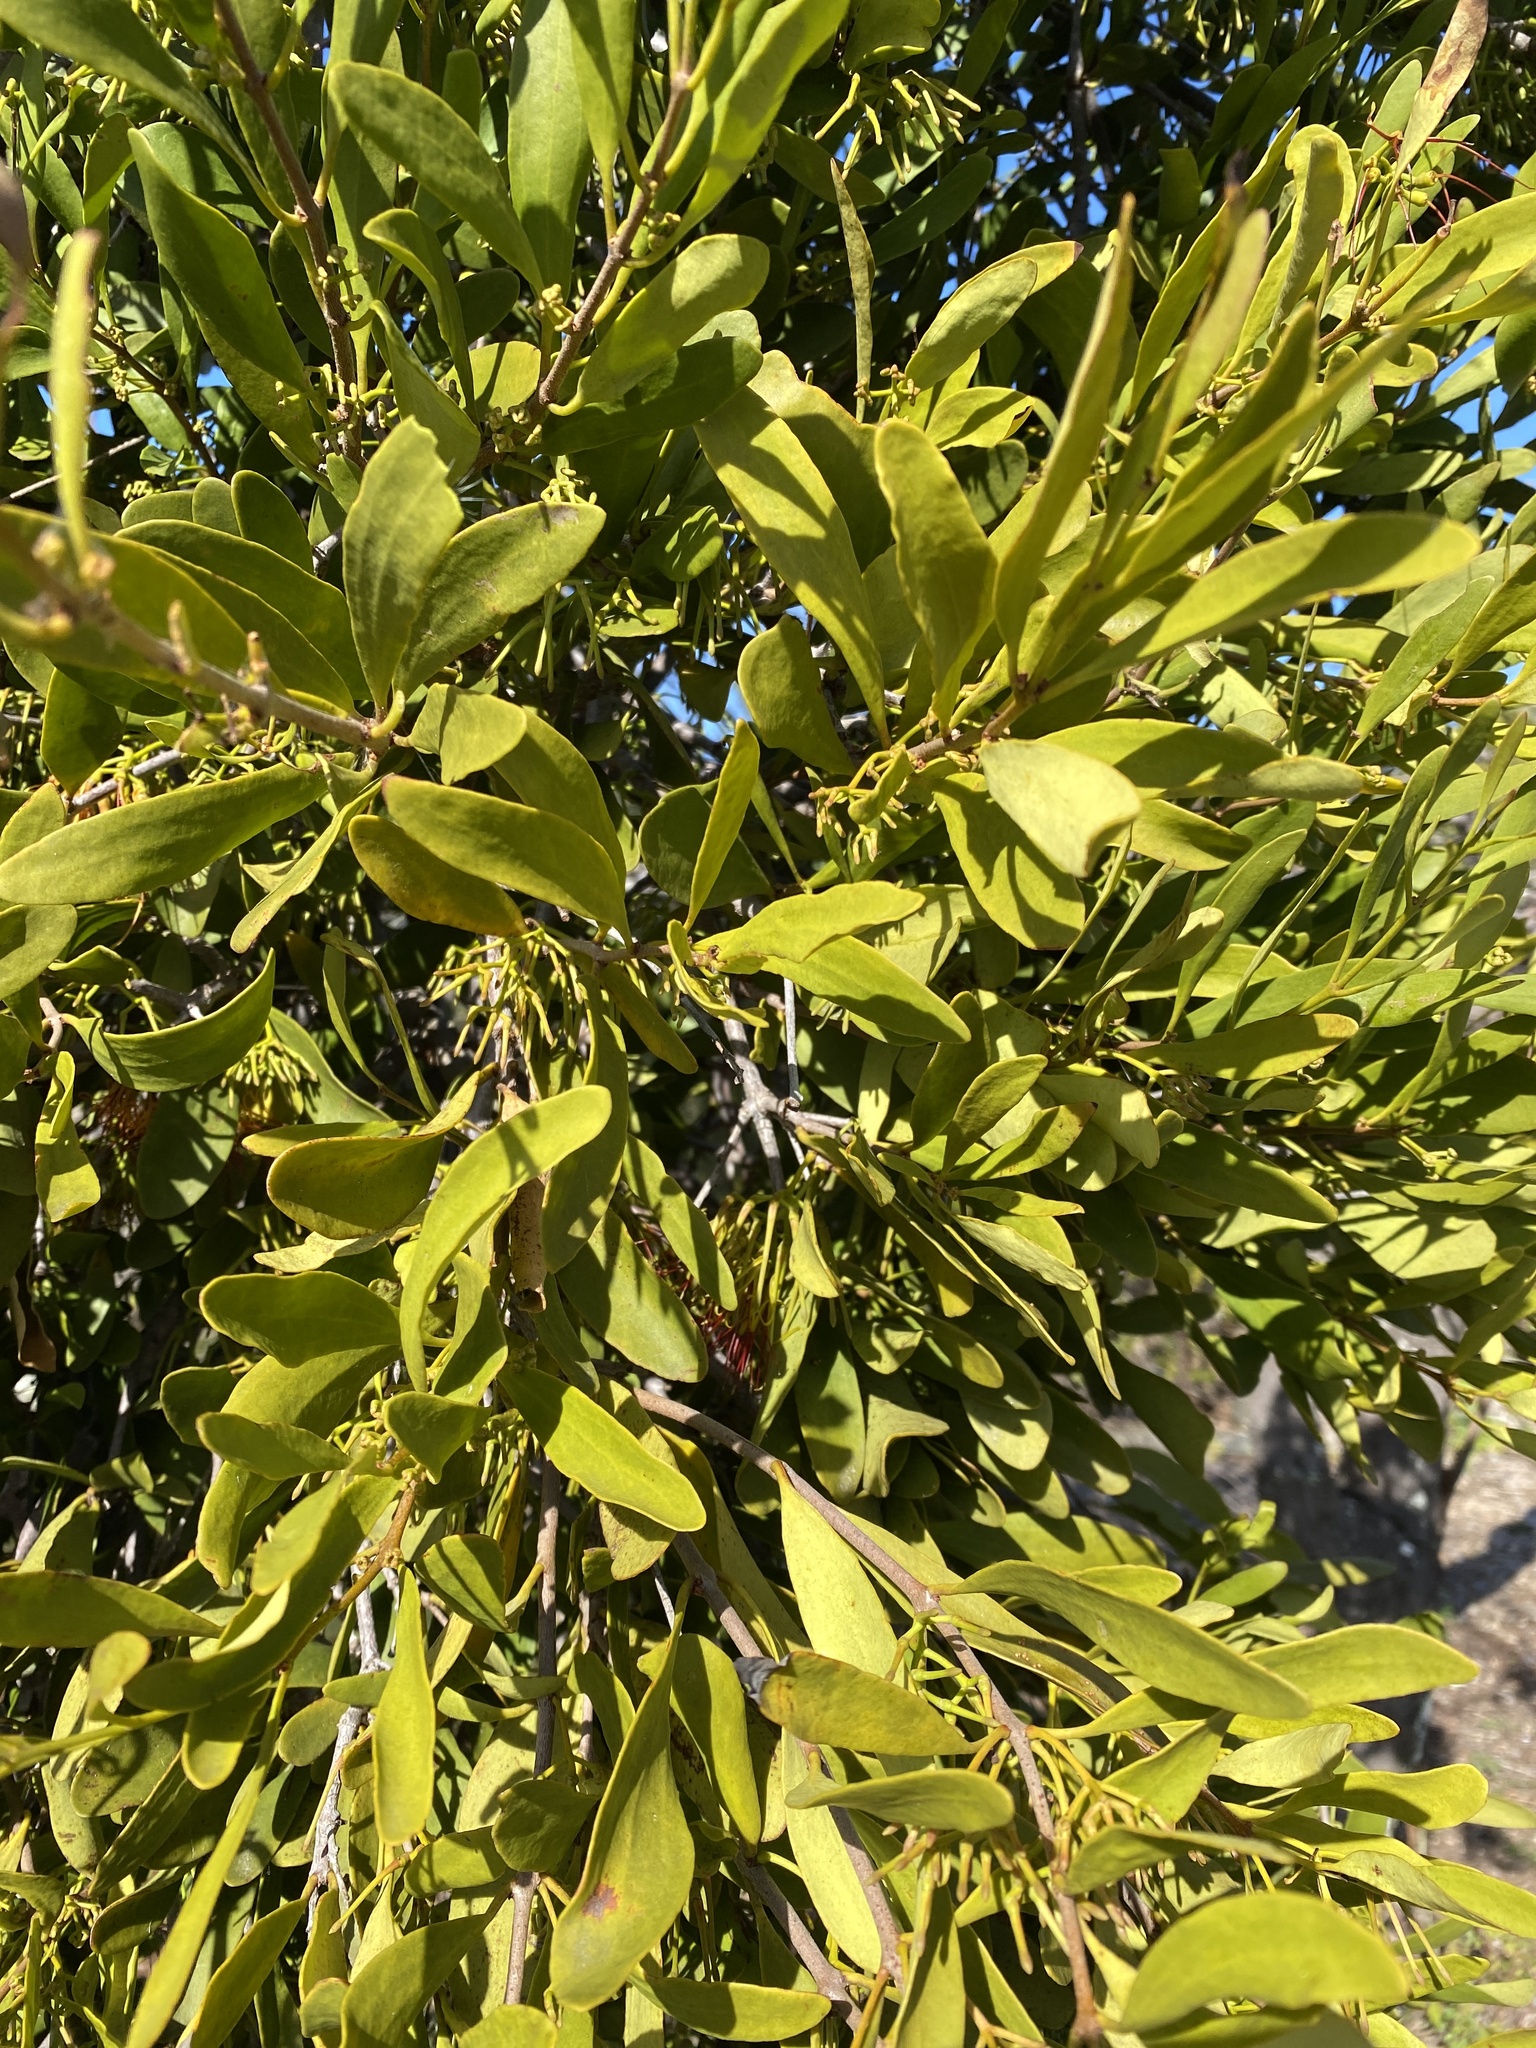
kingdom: Plantae
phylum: Tracheophyta
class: Magnoliopsida
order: Santalales
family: Loranthaceae
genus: Amyema
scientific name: Amyema congener
